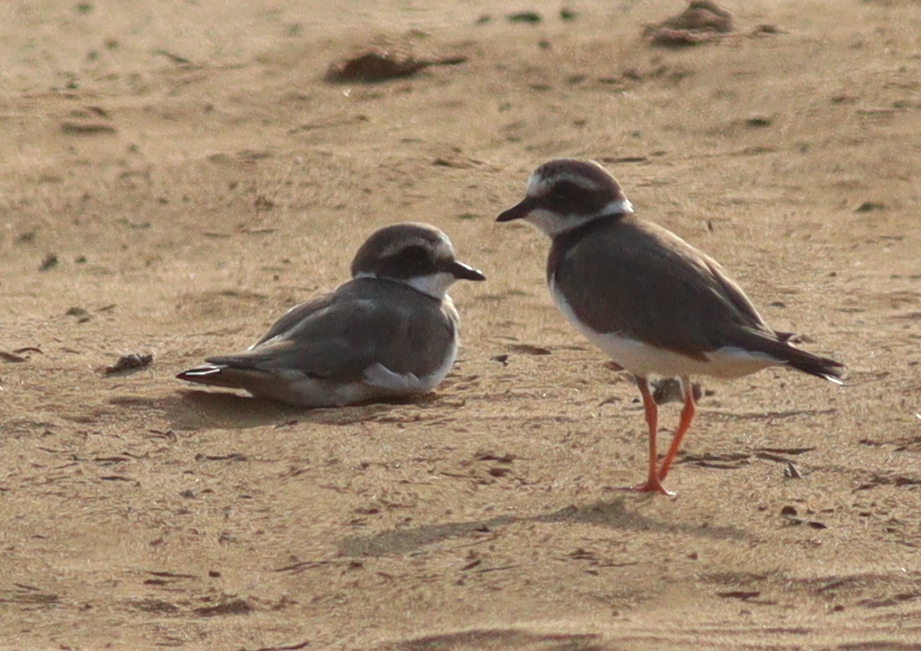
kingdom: Animalia
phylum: Chordata
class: Aves
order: Charadriiformes
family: Charadriidae
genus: Charadrius
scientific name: Charadrius hiaticula
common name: Common ringed plover
